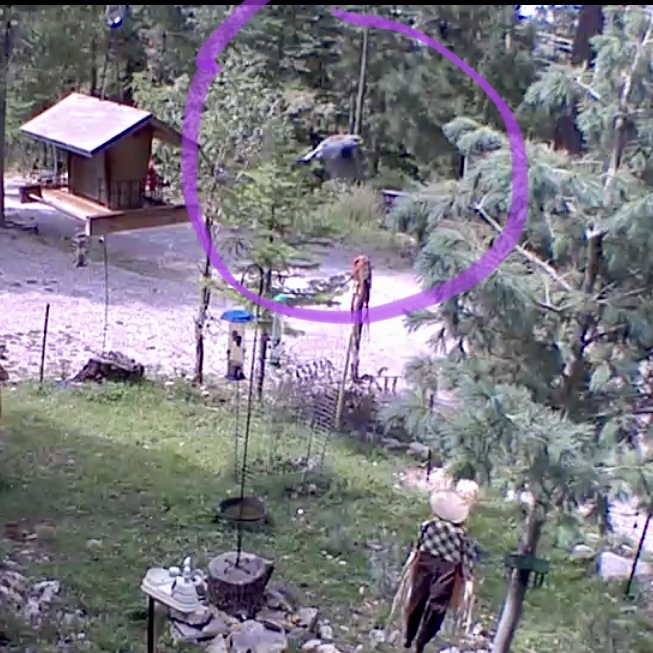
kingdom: Animalia
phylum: Chordata
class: Aves
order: Passeriformes
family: Passerellidae
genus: Junco
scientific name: Junco hyemalis
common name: Dark-eyed junco
